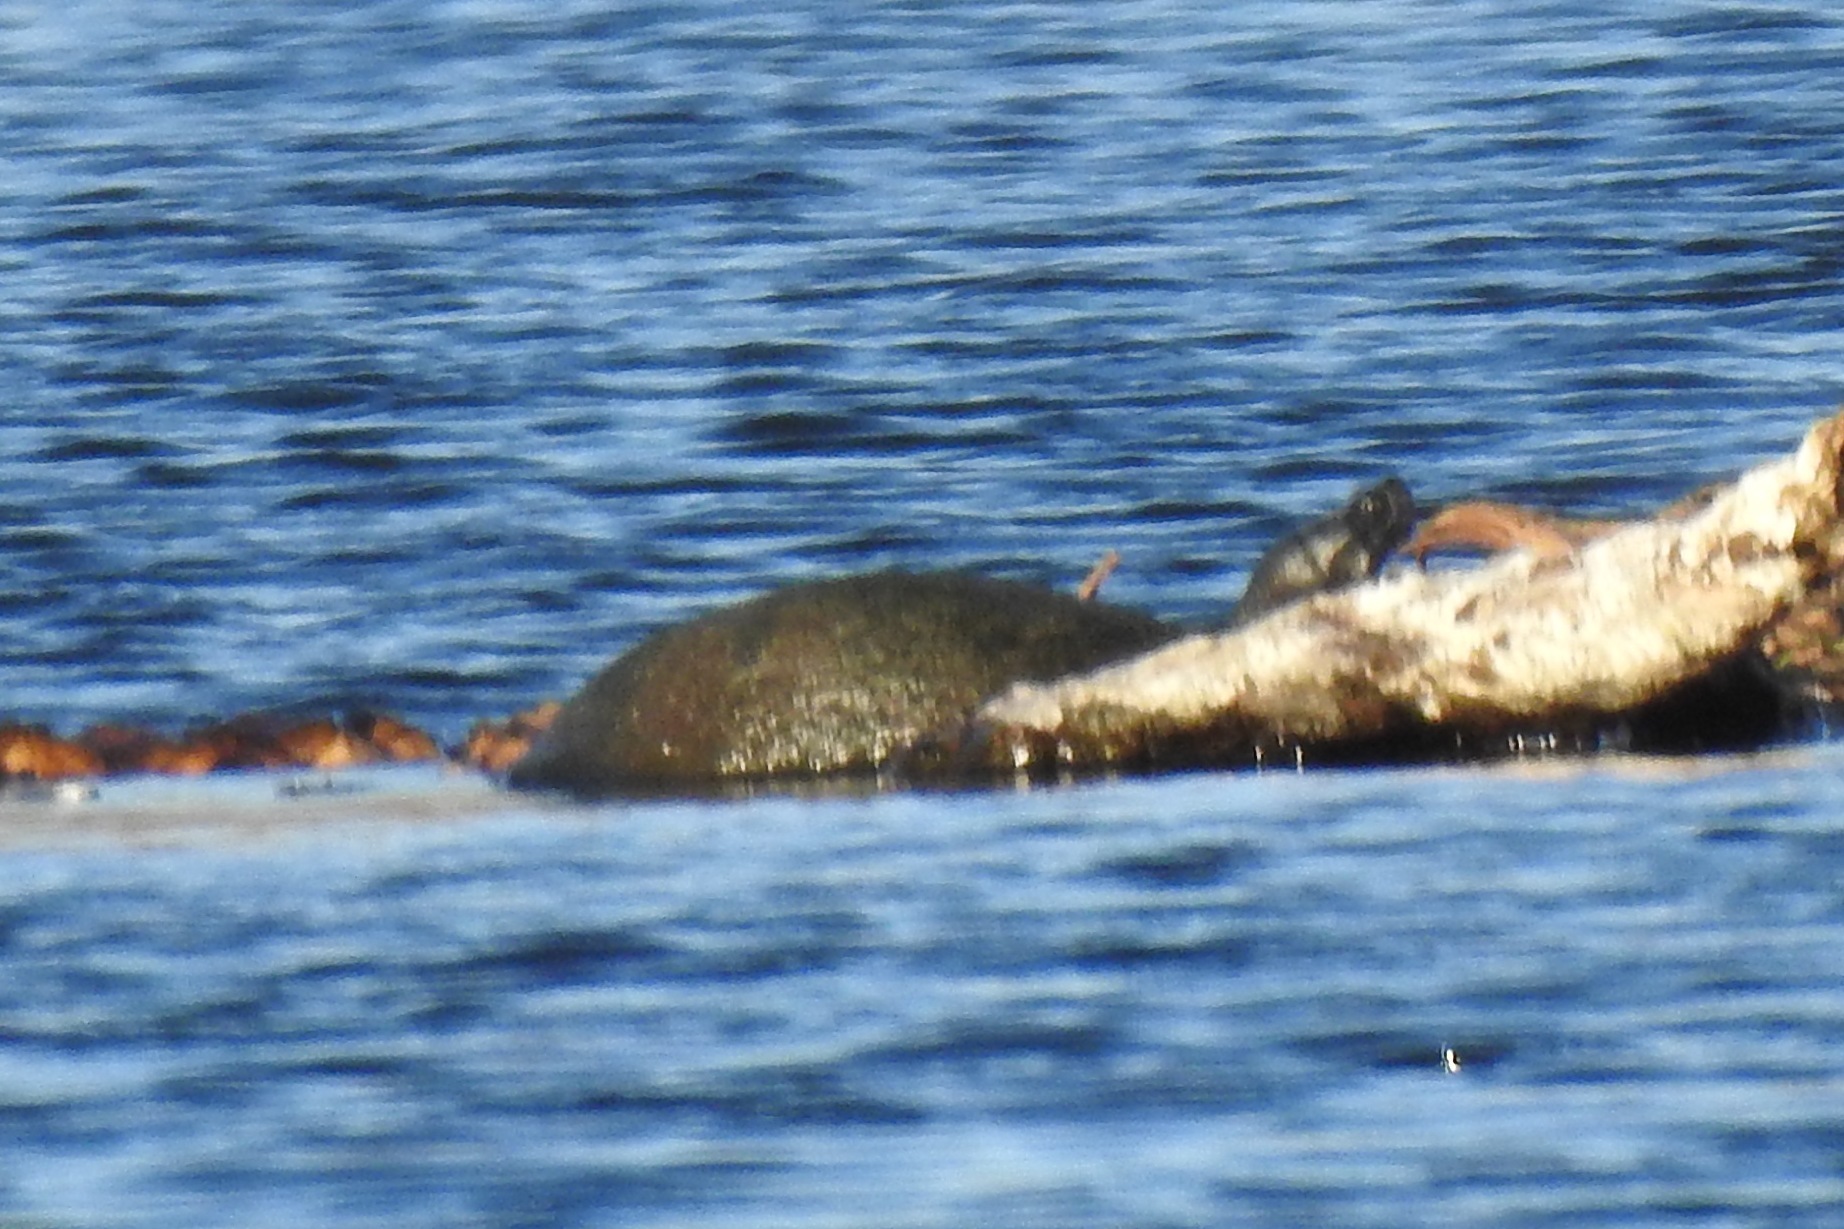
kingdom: Animalia
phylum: Chordata
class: Testudines
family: Emydidae
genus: Pseudemys
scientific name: Pseudemys rubriventris
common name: American red-bellied turtle
